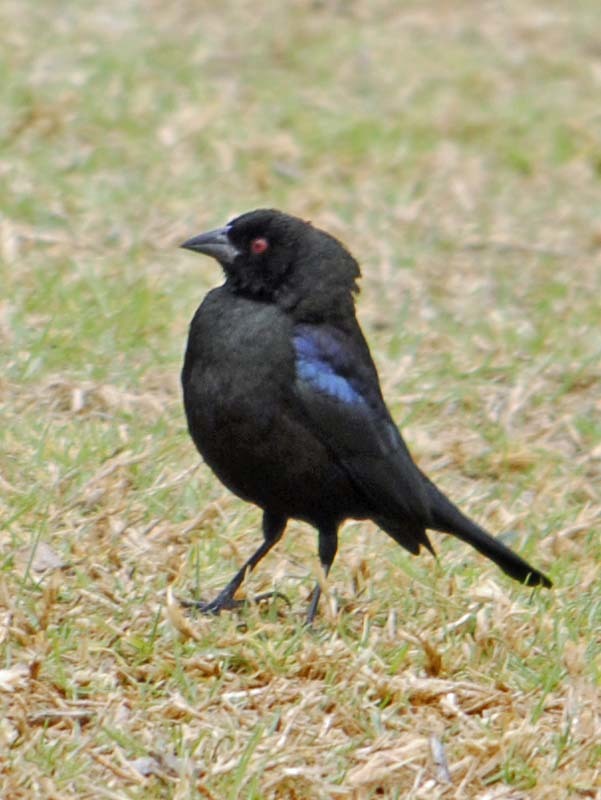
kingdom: Animalia
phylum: Chordata
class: Aves
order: Passeriformes
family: Icteridae
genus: Molothrus
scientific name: Molothrus aeneus
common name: Bronzed cowbird
